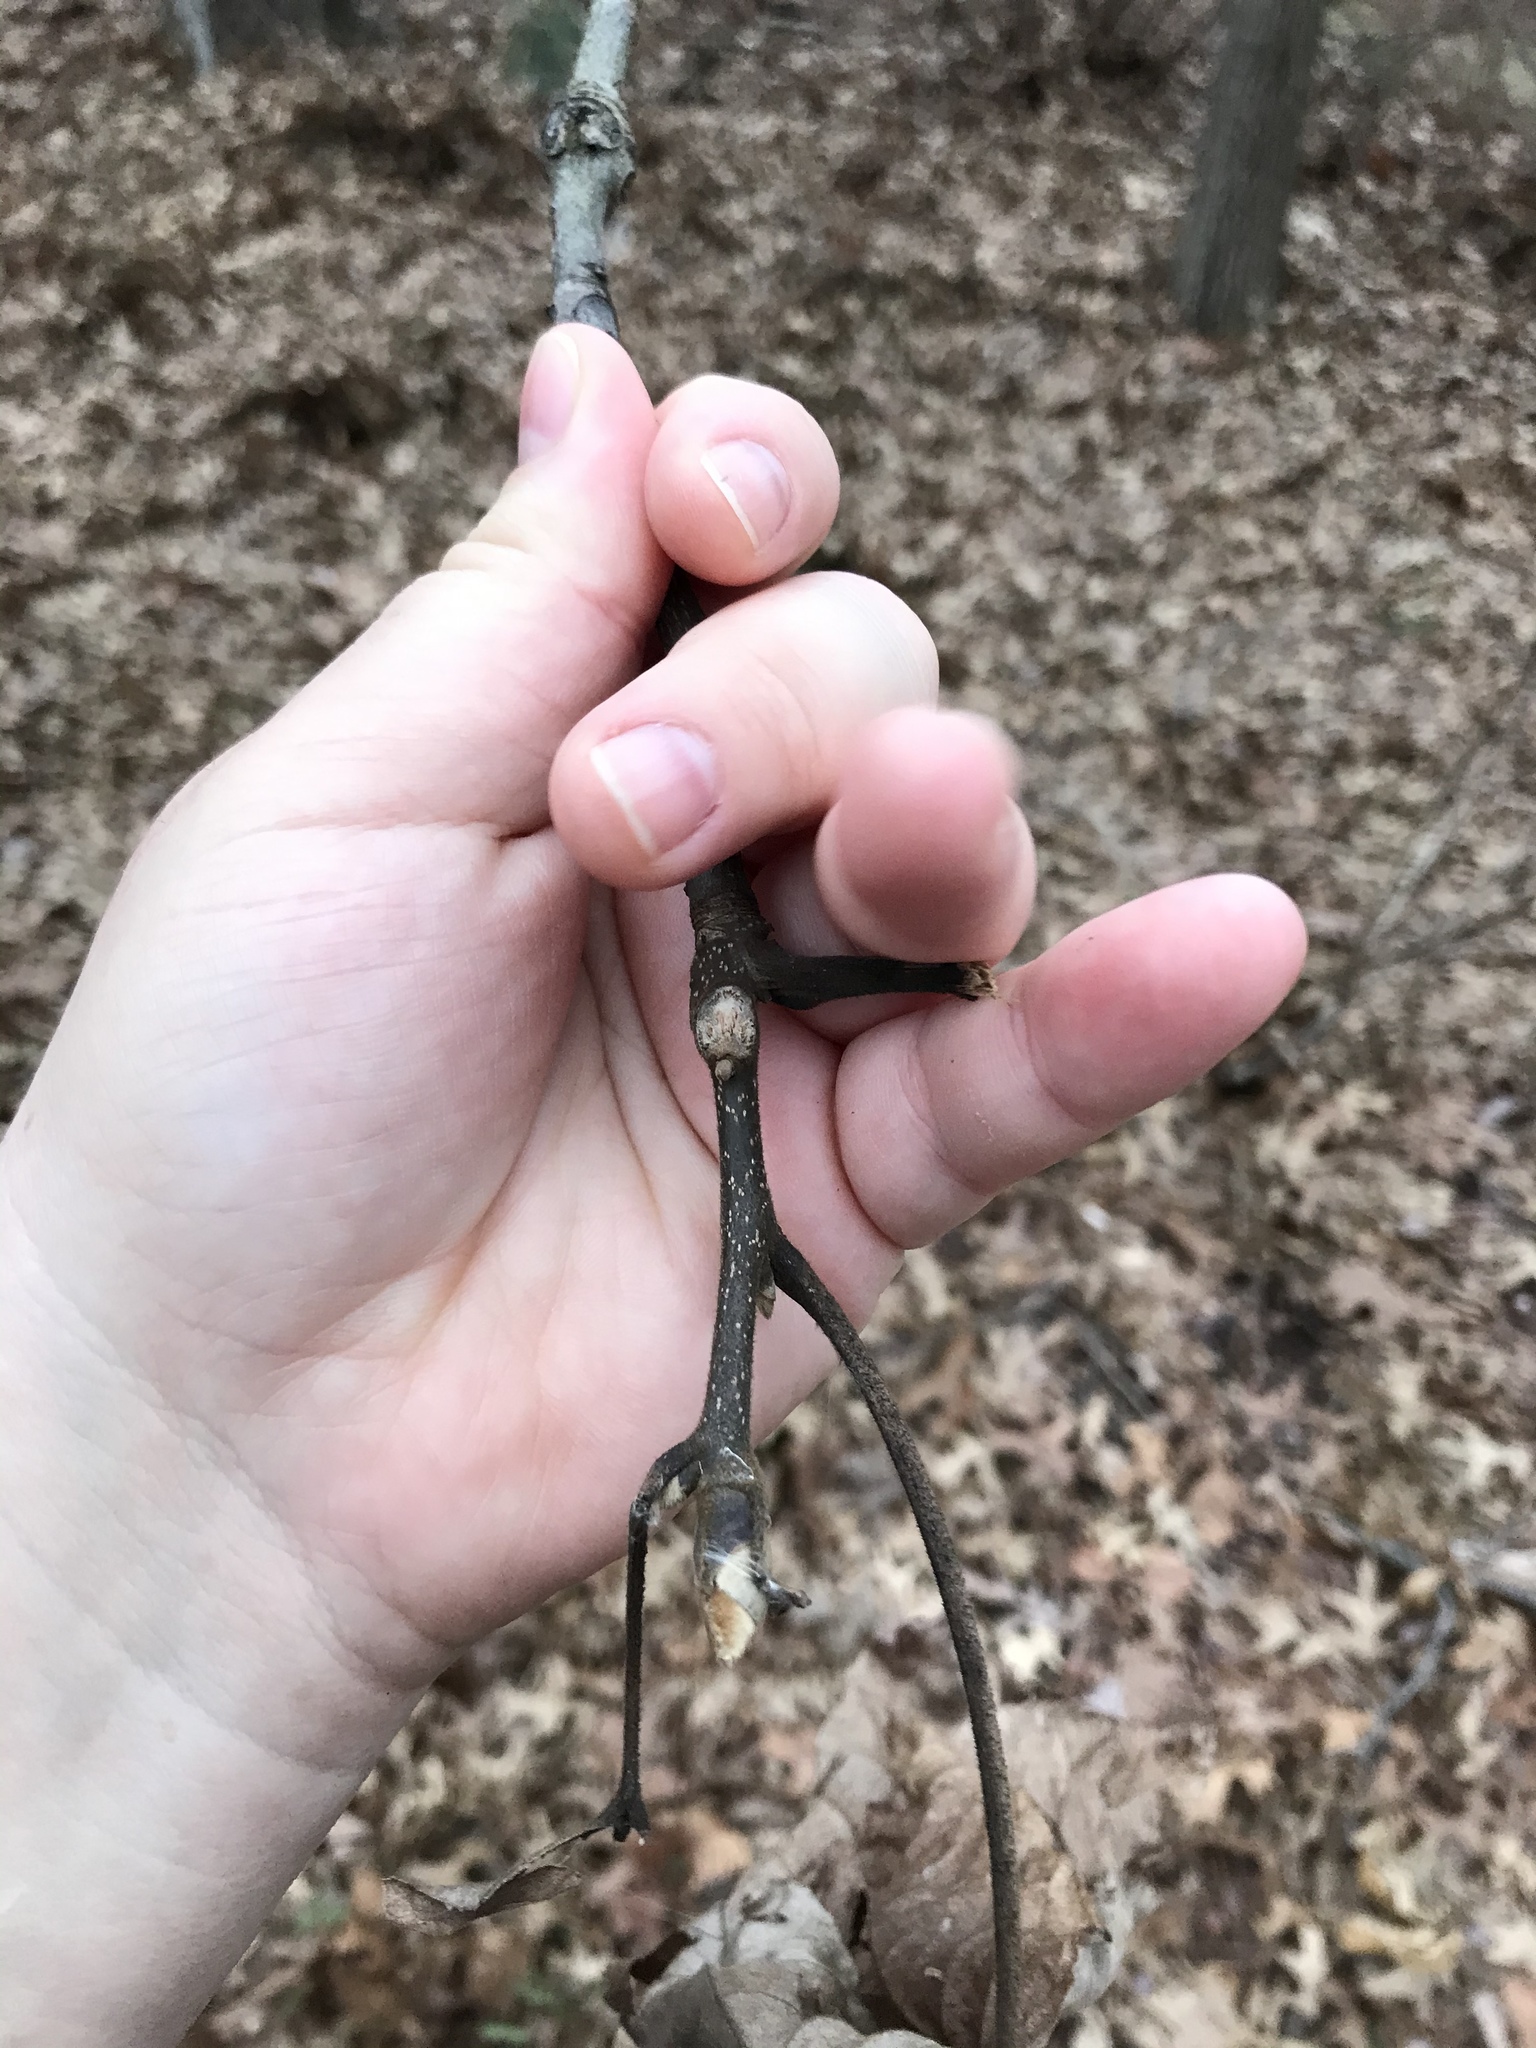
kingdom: Plantae
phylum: Tracheophyta
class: Magnoliopsida
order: Fagales
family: Juglandaceae
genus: Carya
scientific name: Carya alba
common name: Mockernut hickory
